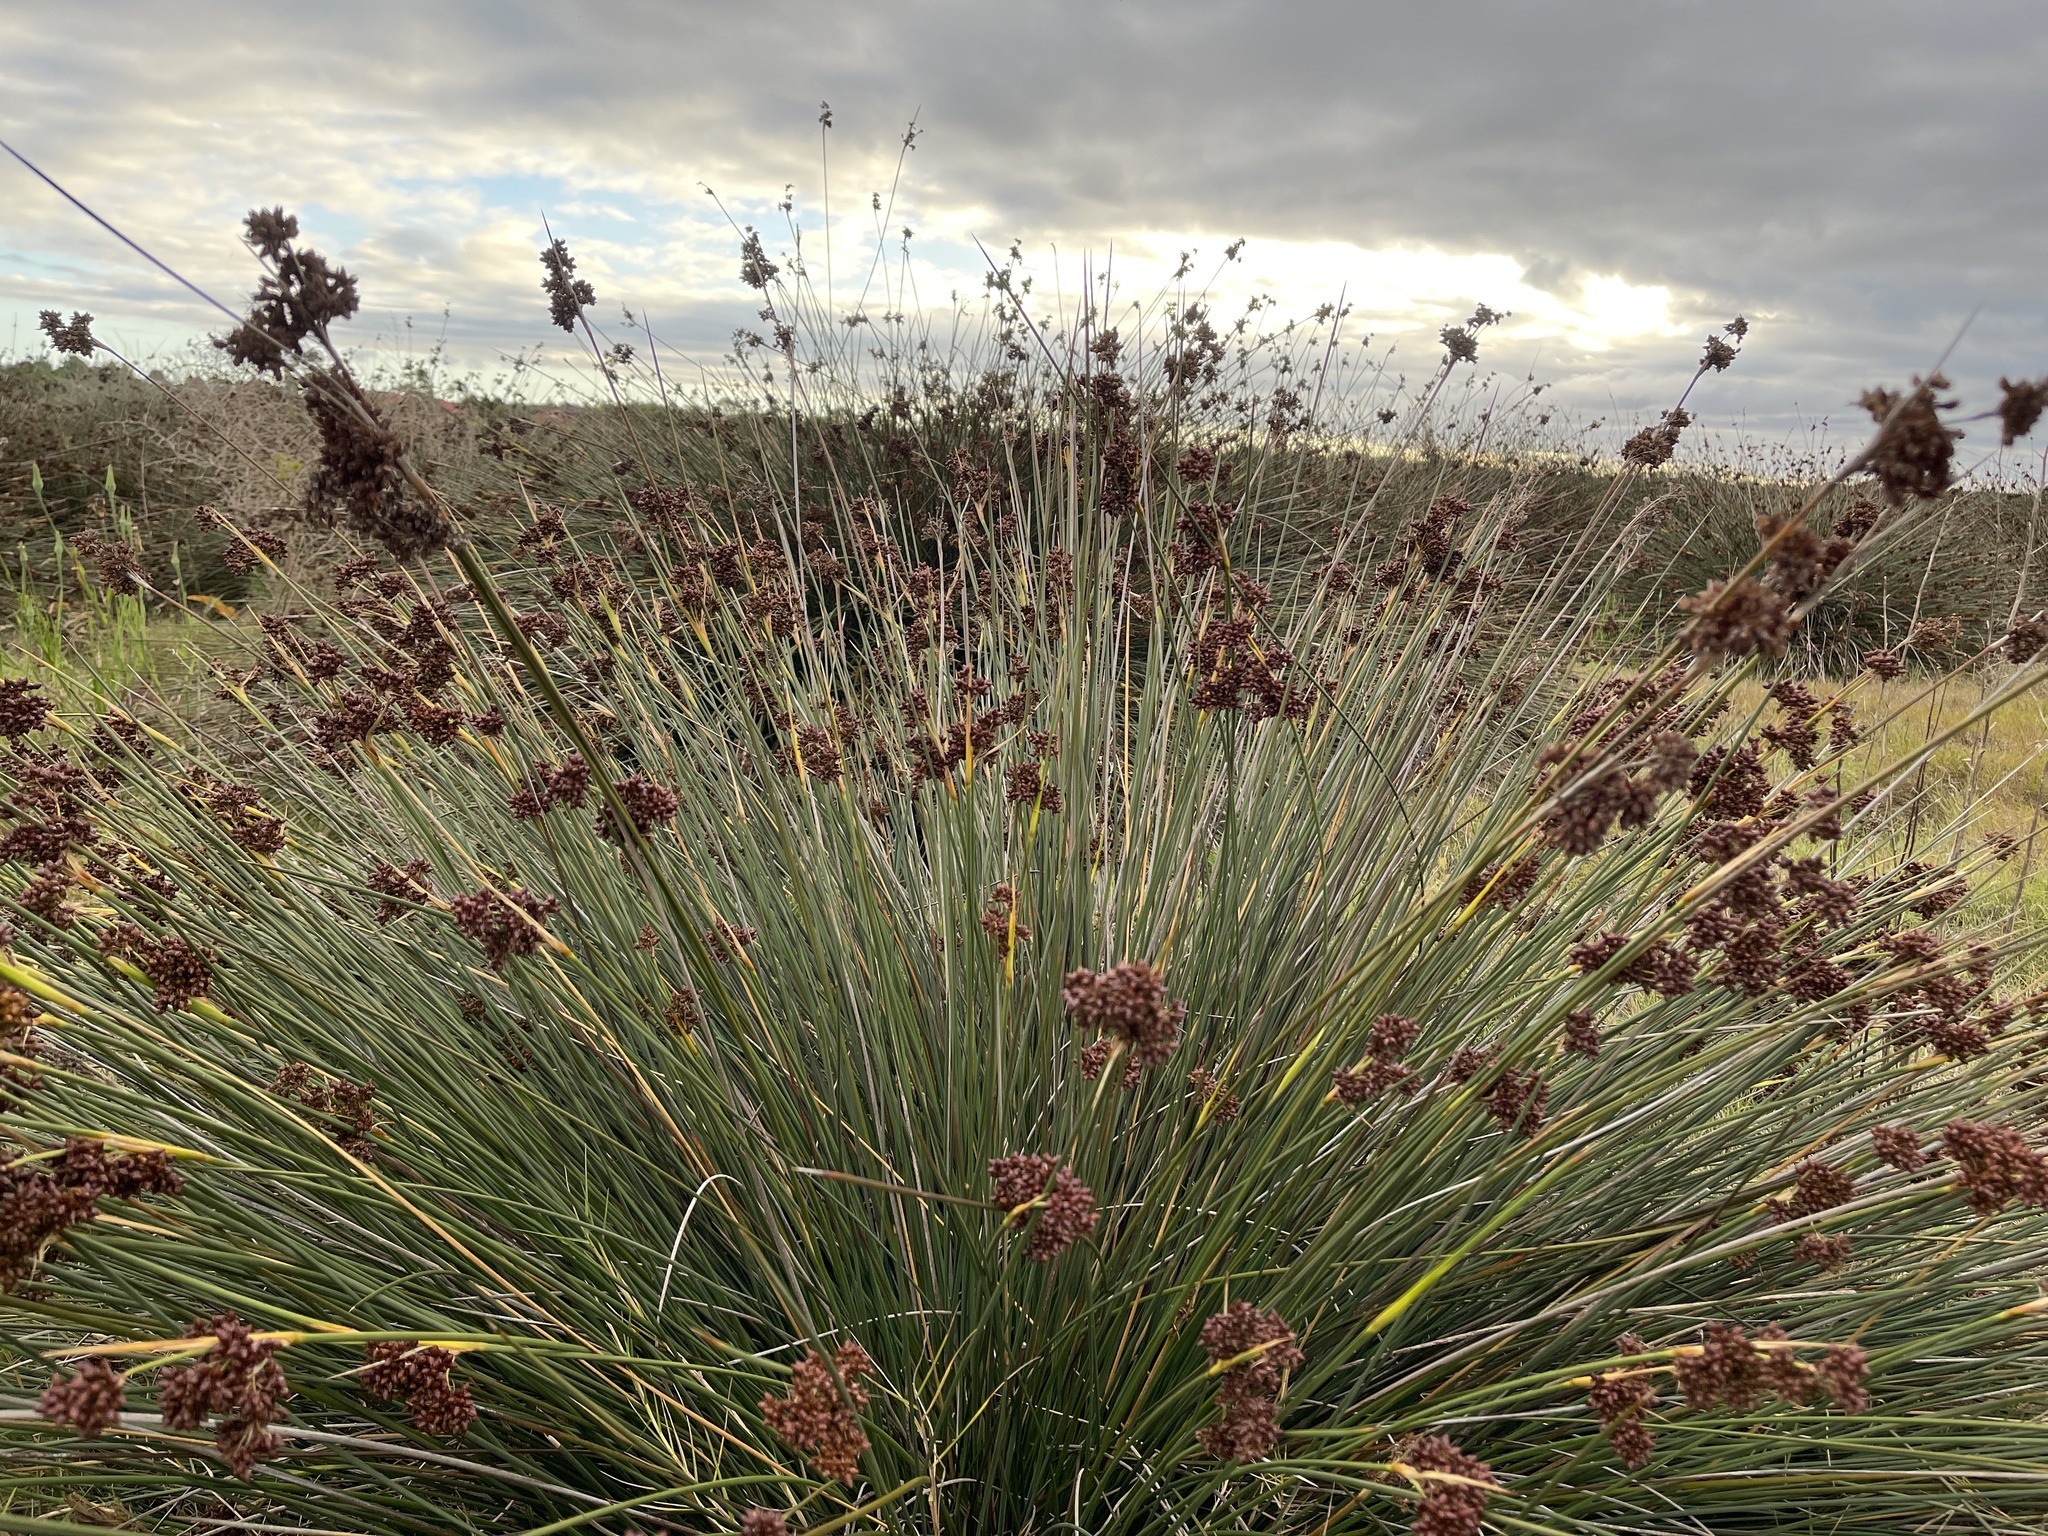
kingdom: Plantae
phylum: Tracheophyta
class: Liliopsida
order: Poales
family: Juncaceae
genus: Juncus
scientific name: Juncus acutus
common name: Sharp rush
